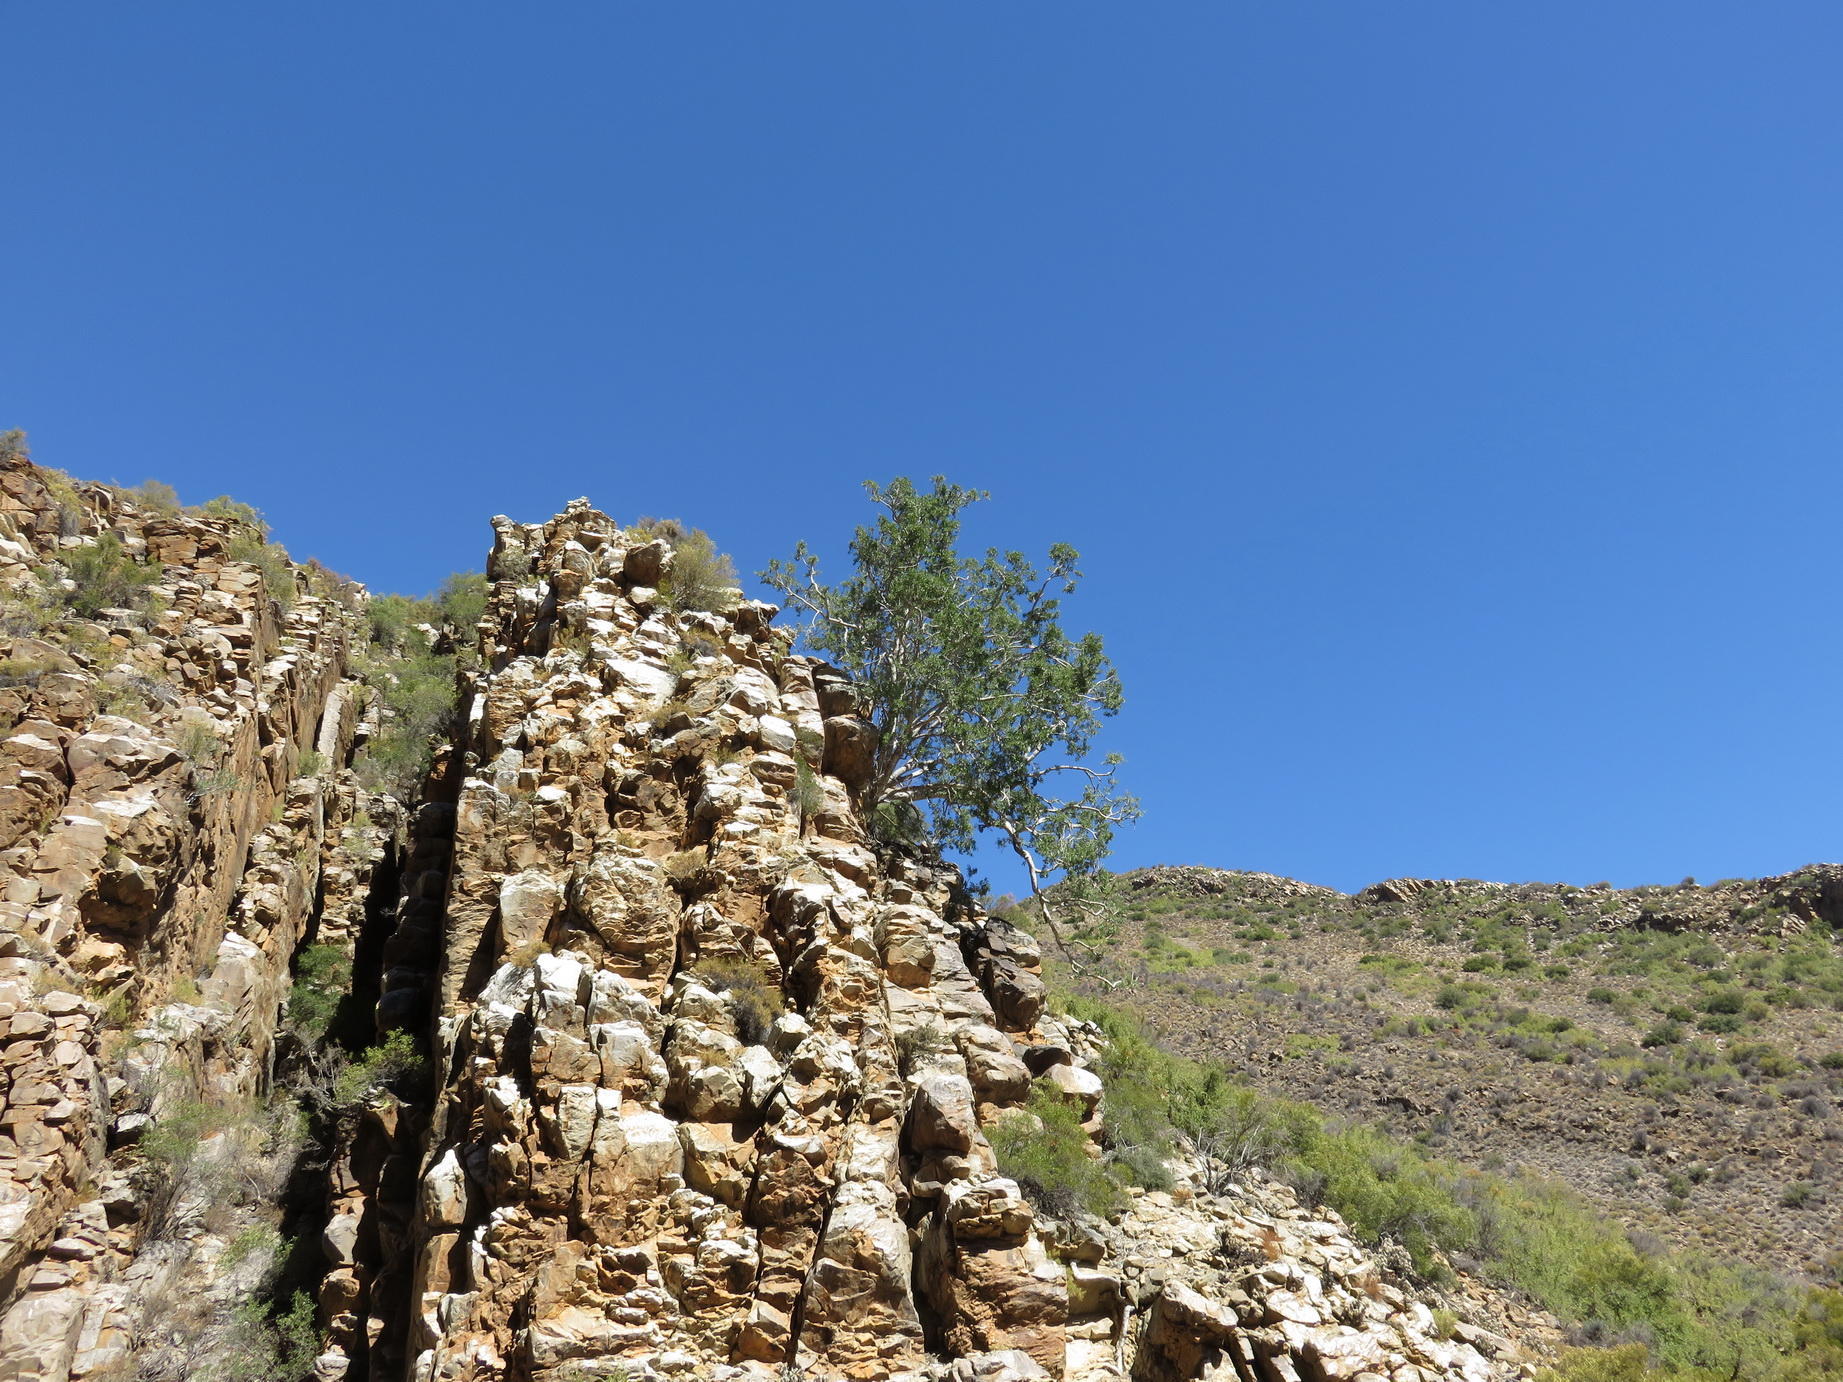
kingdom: Plantae
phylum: Tracheophyta
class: Magnoliopsida
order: Rosales
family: Moraceae
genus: Ficus
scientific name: Ficus cordata
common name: Namaqua rock fig
